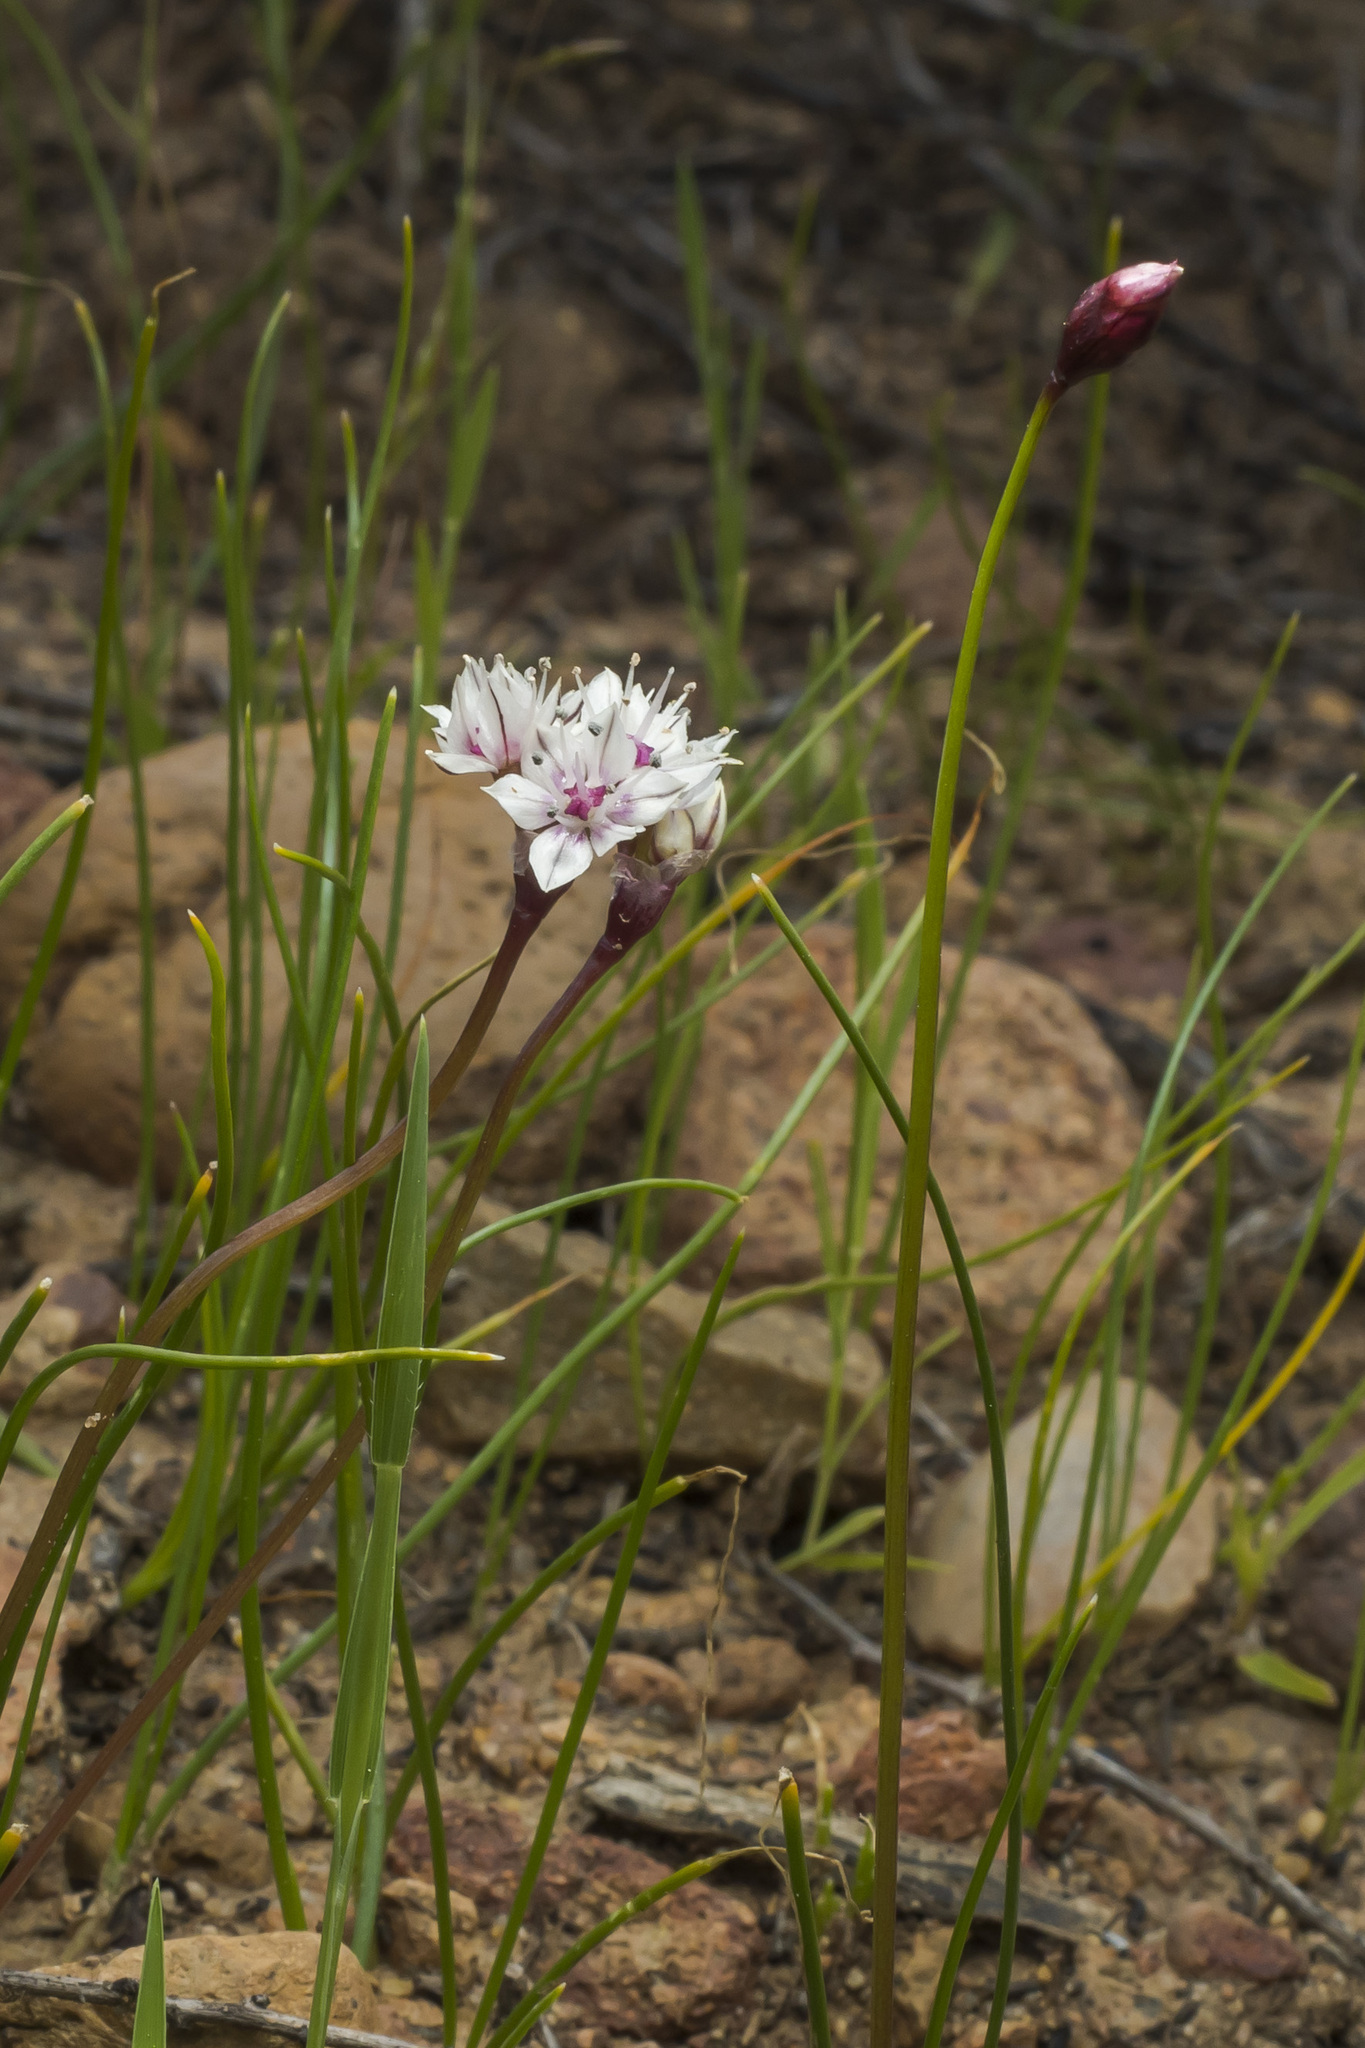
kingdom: Plantae
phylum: Tracheophyta
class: Liliopsida
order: Asparagales
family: Amaryllidaceae
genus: Allium
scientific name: Allium haematochiton
